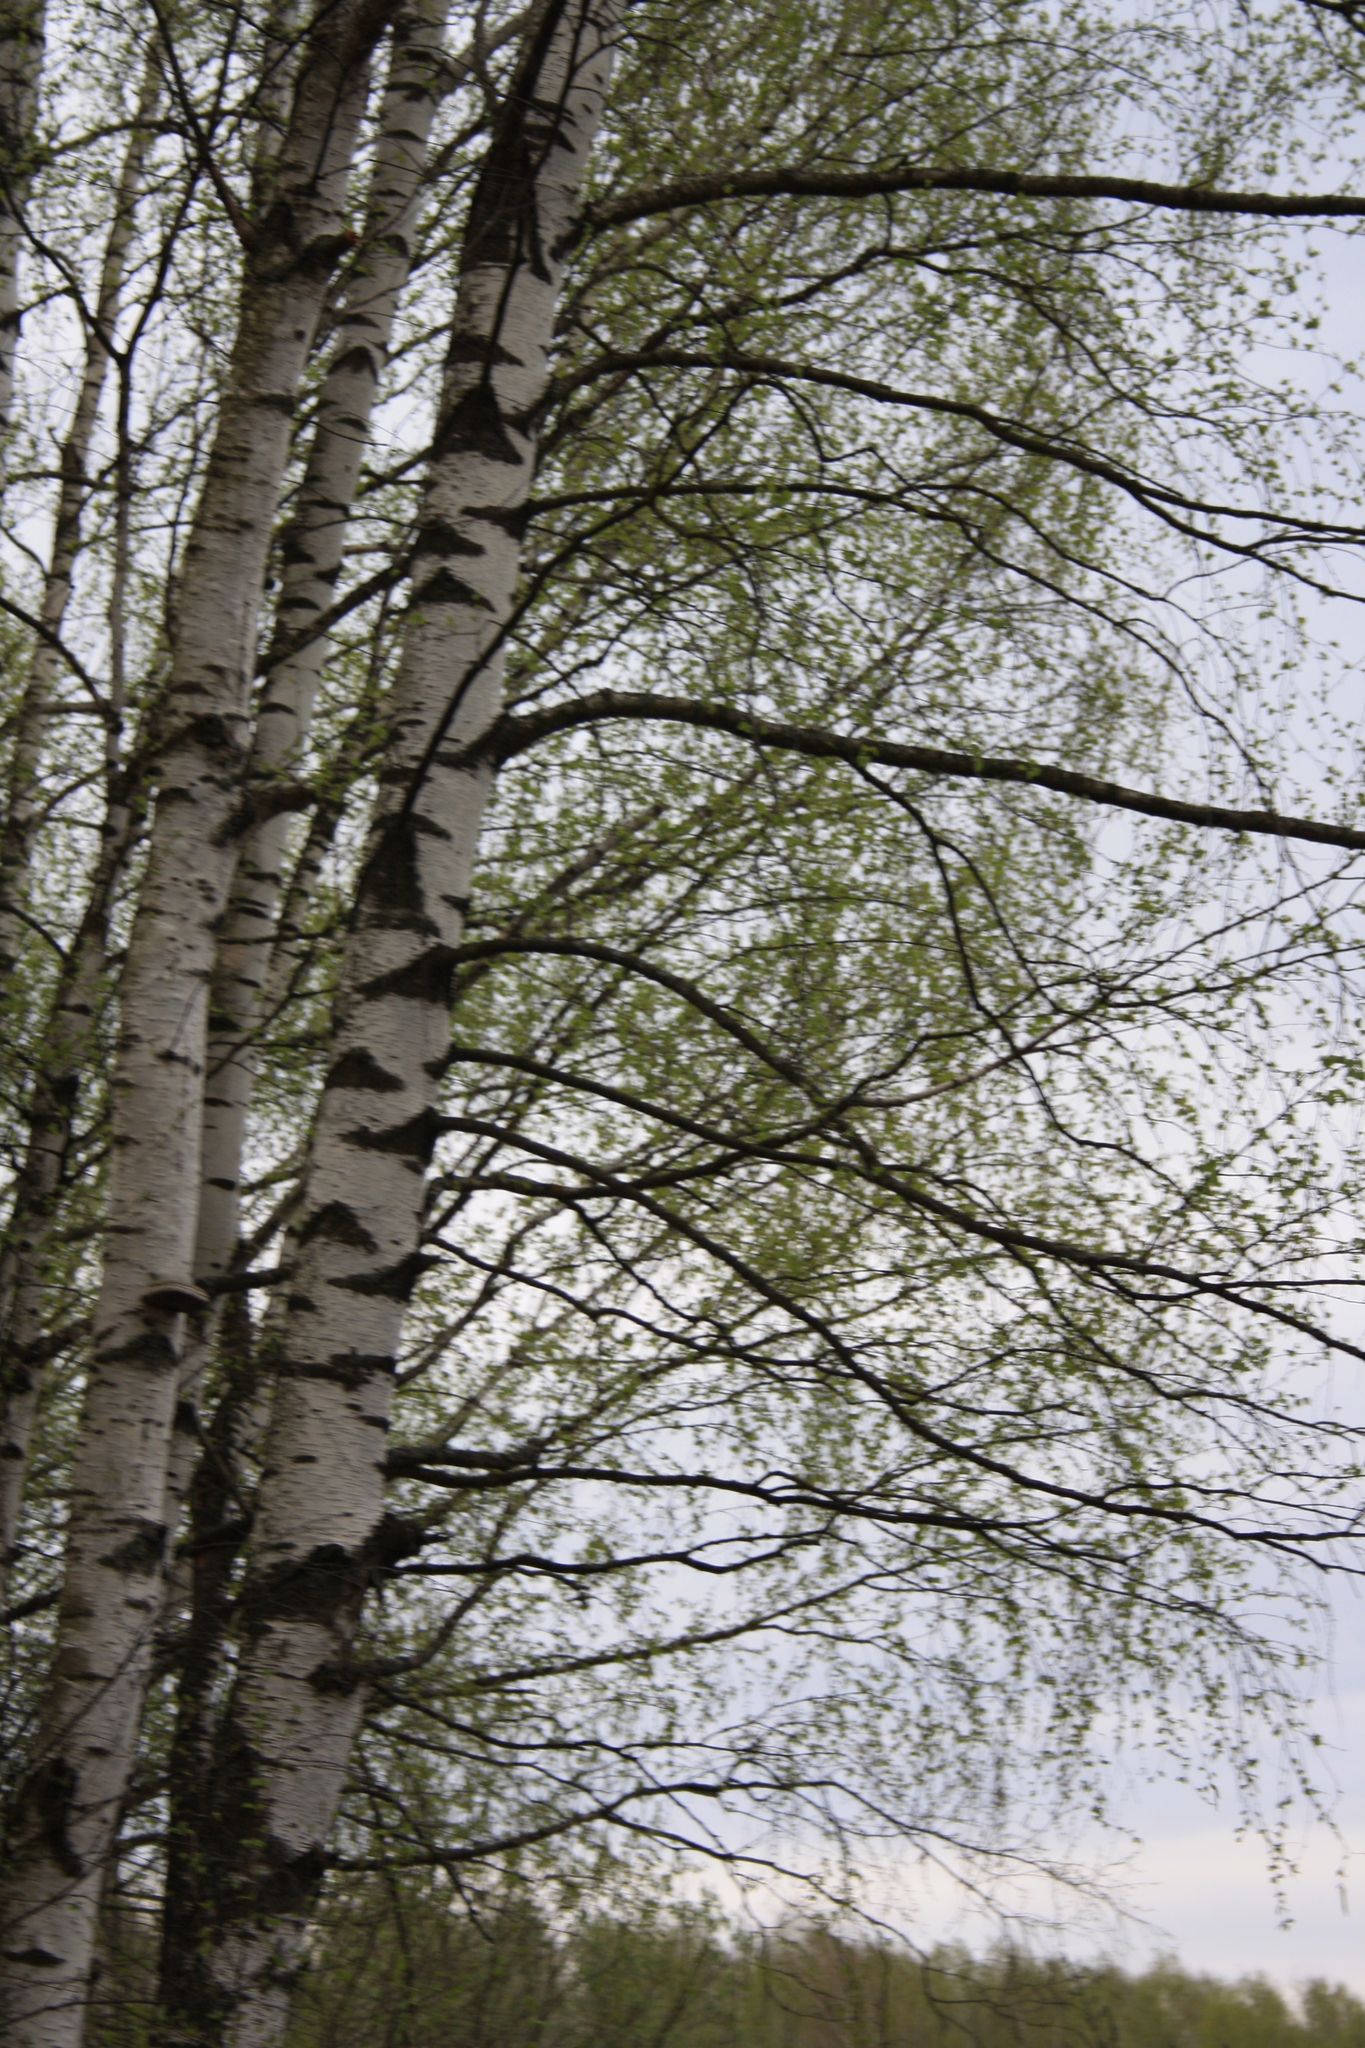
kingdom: Plantae
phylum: Tracheophyta
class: Magnoliopsida
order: Fagales
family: Betulaceae
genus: Betula
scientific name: Betula pendula
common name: Silver birch
